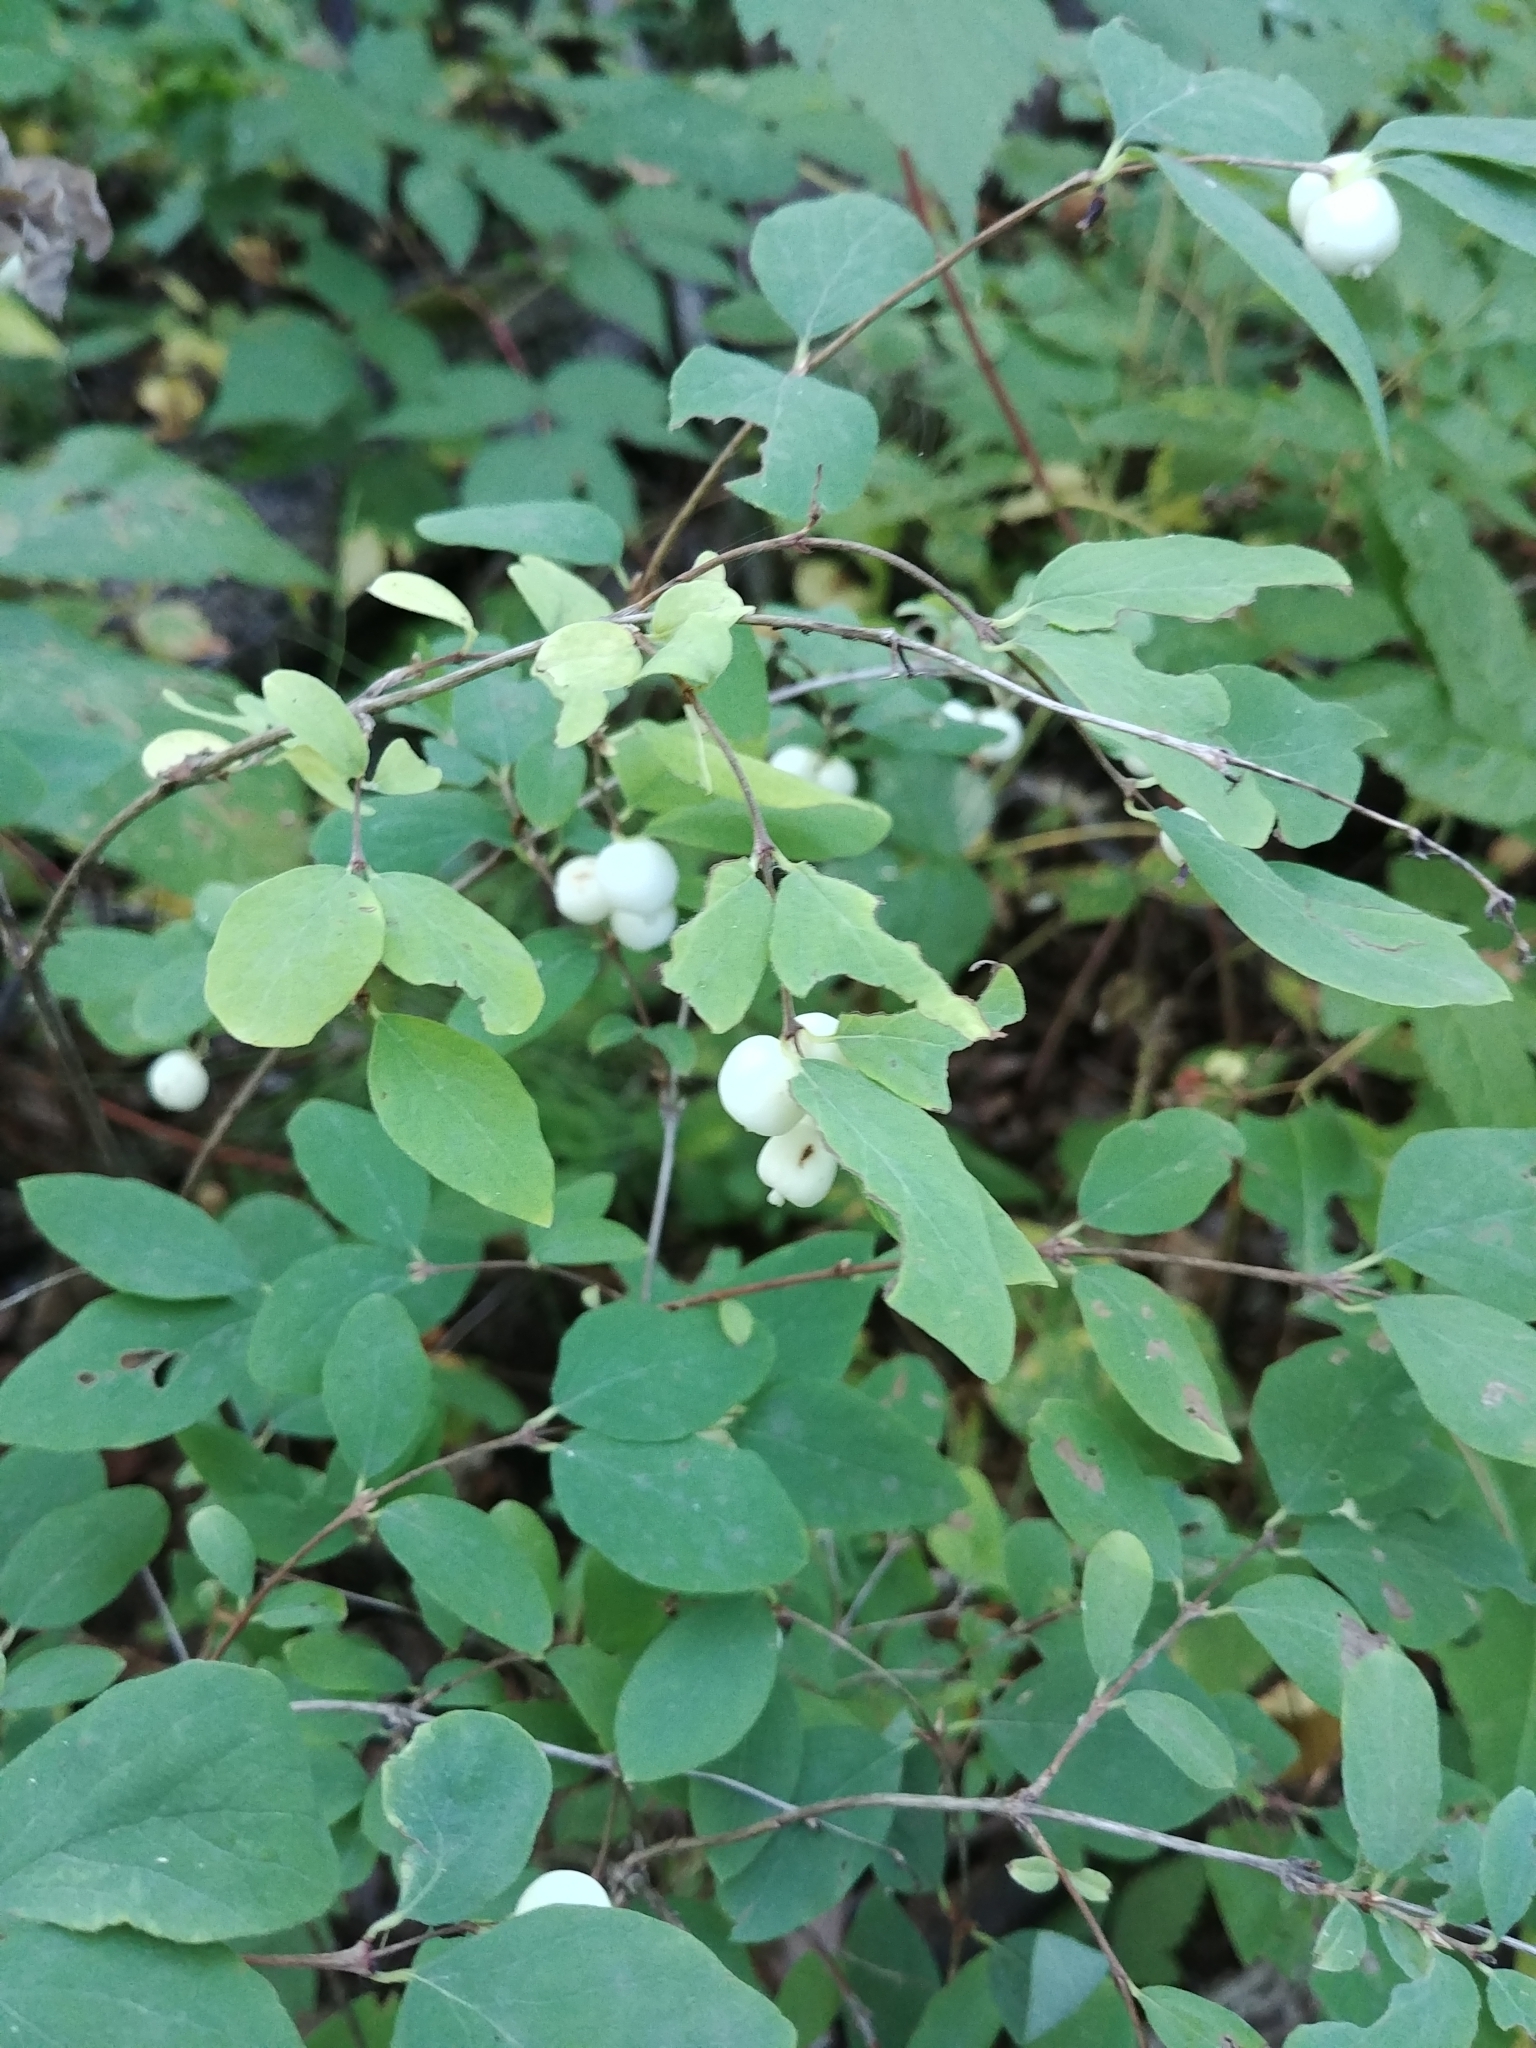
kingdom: Plantae
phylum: Tracheophyta
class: Magnoliopsida
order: Dipsacales
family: Caprifoliaceae
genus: Symphoricarpos
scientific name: Symphoricarpos albus
